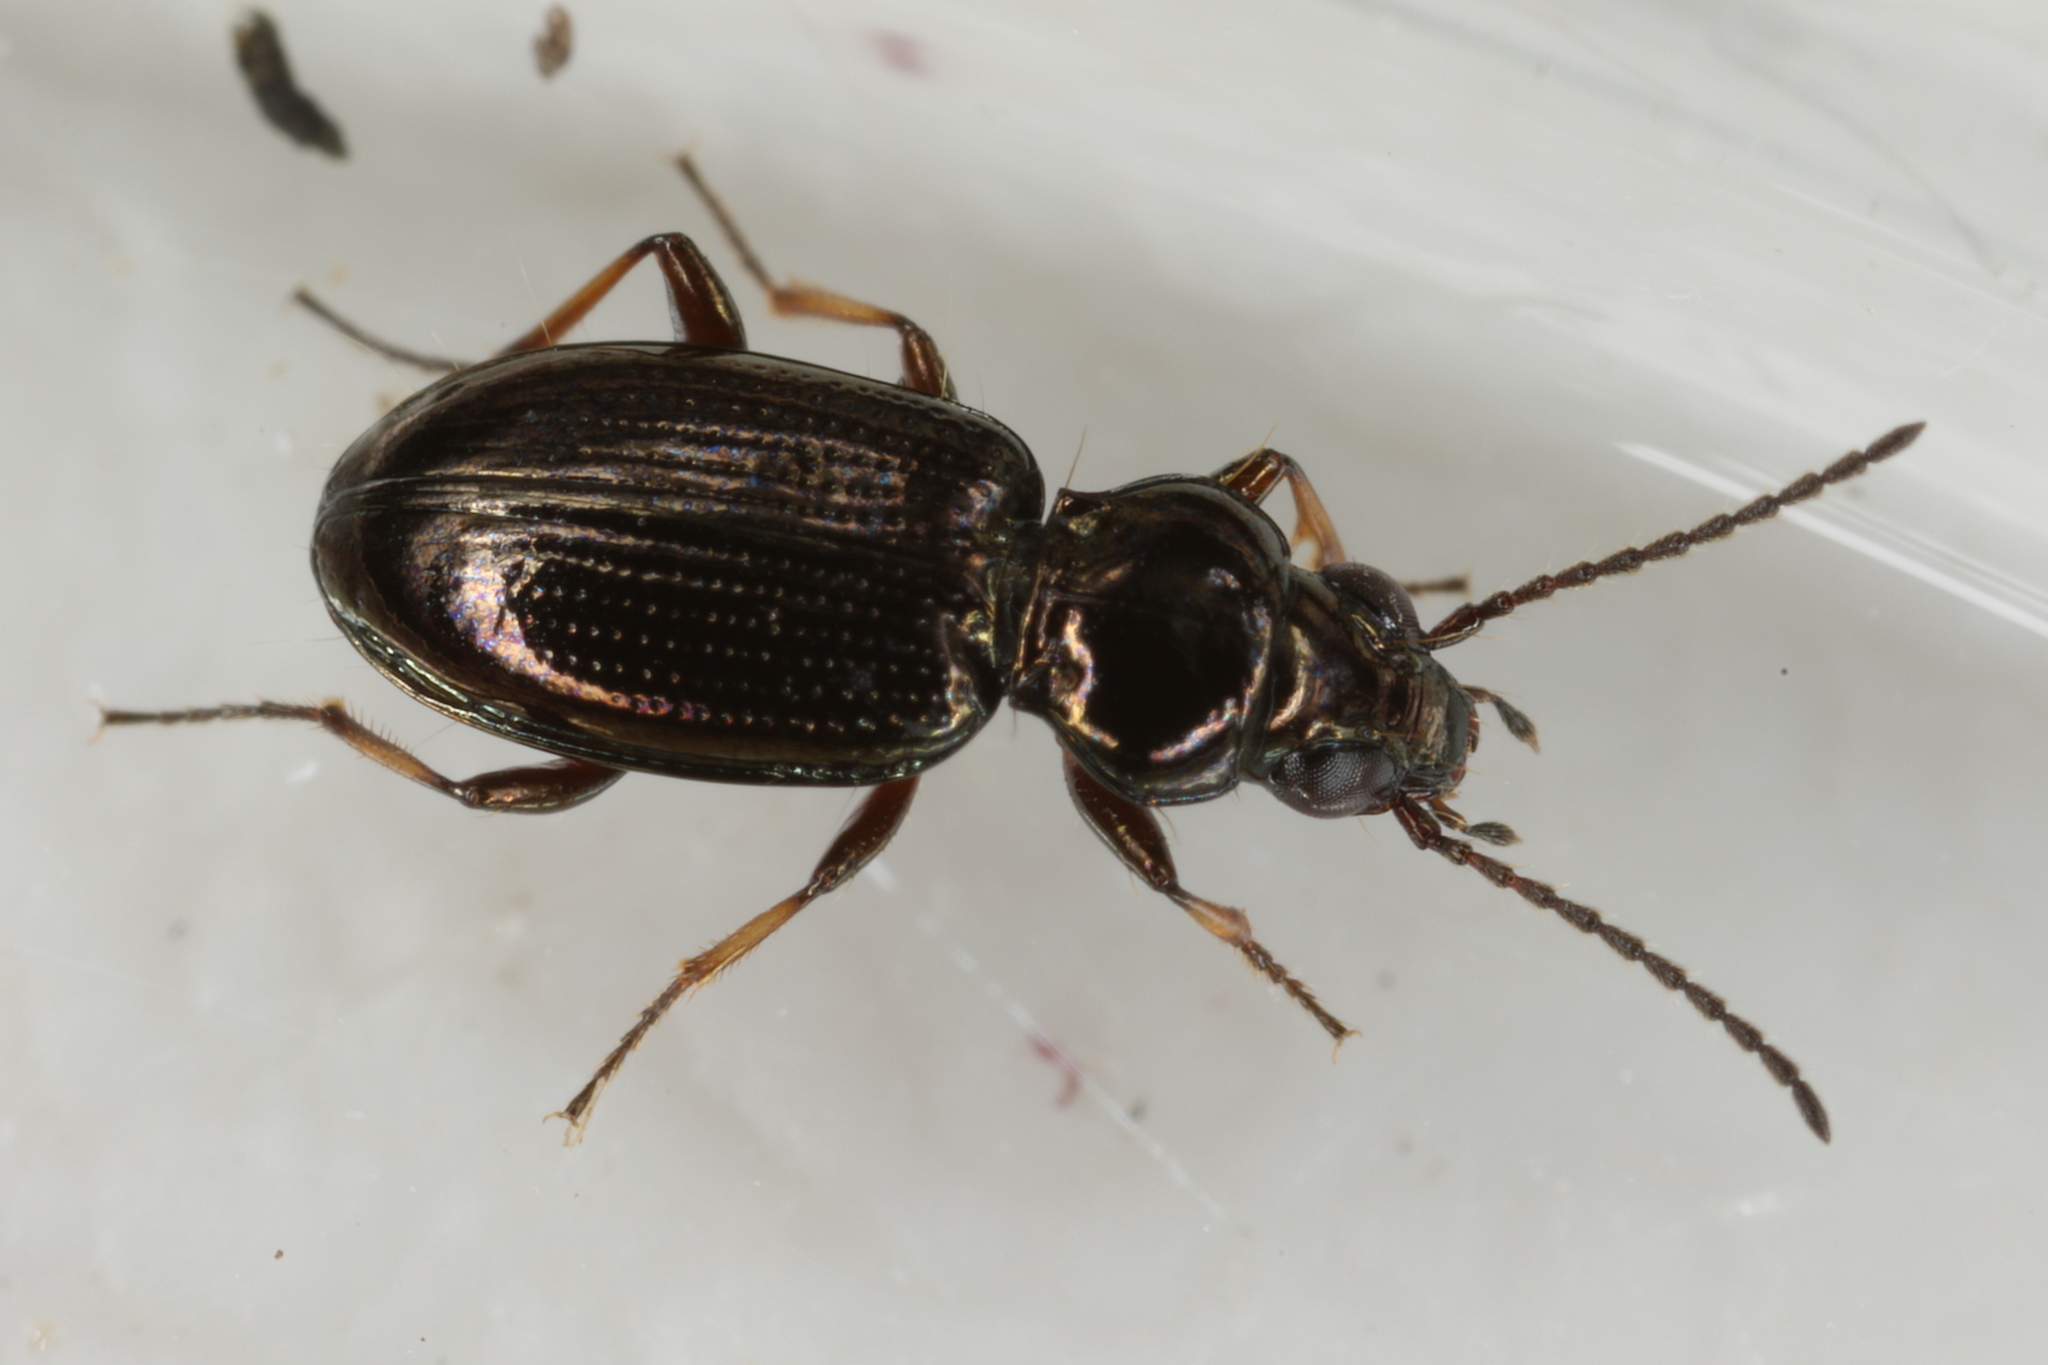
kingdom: Animalia
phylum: Arthropoda
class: Insecta
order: Coleoptera
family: Carabidae
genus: Bembidion
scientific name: Bembidion lampros
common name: Shiny riverbank ground beetle
